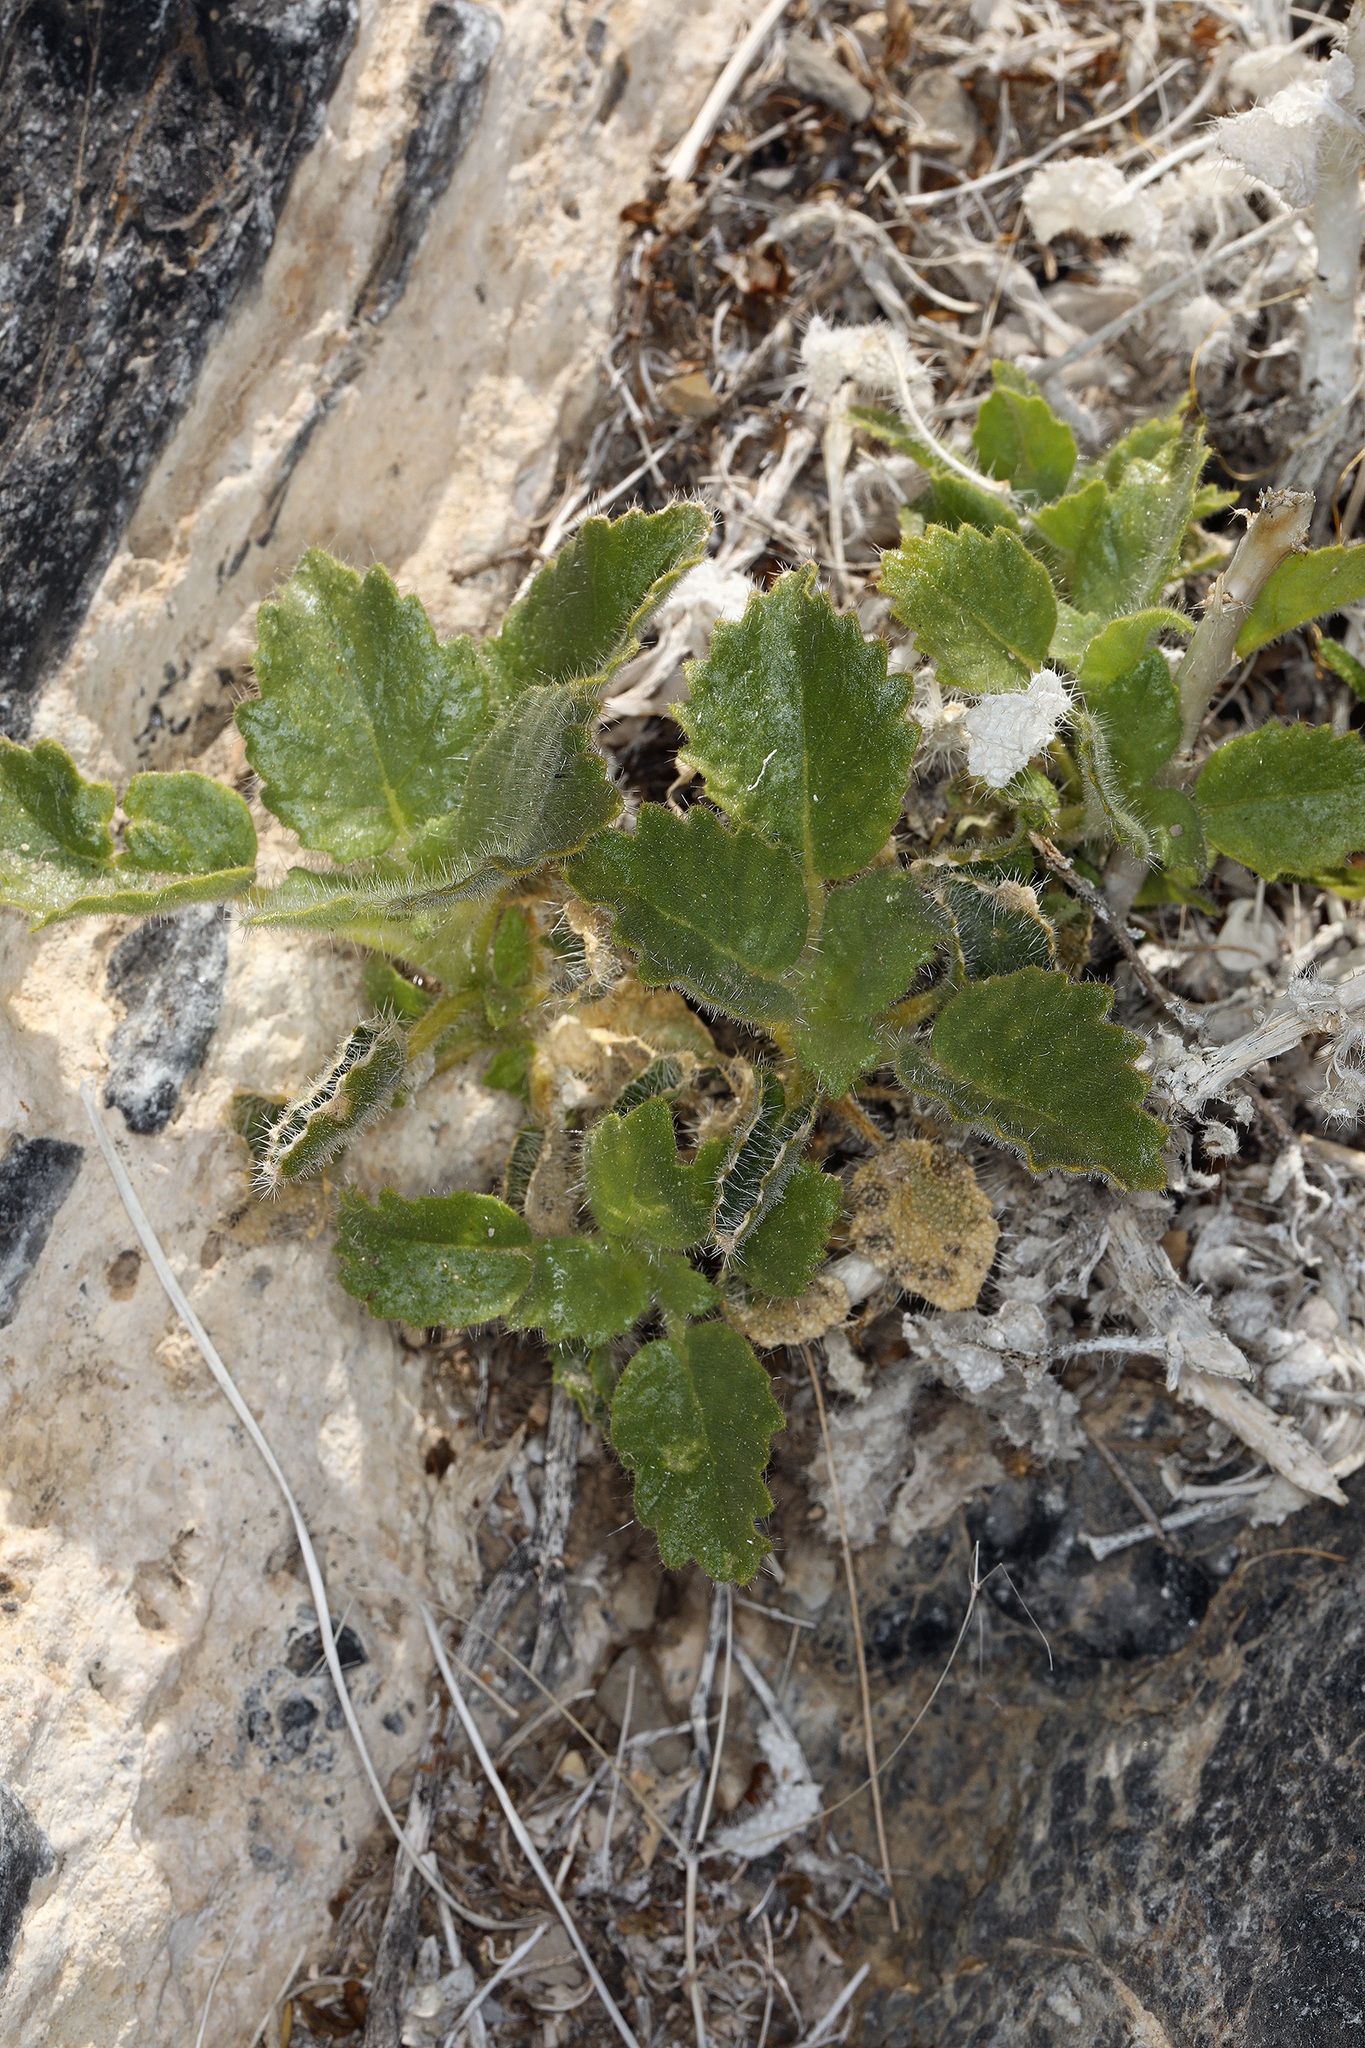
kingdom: Plantae
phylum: Tracheophyta
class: Magnoliopsida
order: Cornales
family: Loasaceae
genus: Eucnide
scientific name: Eucnide urens
